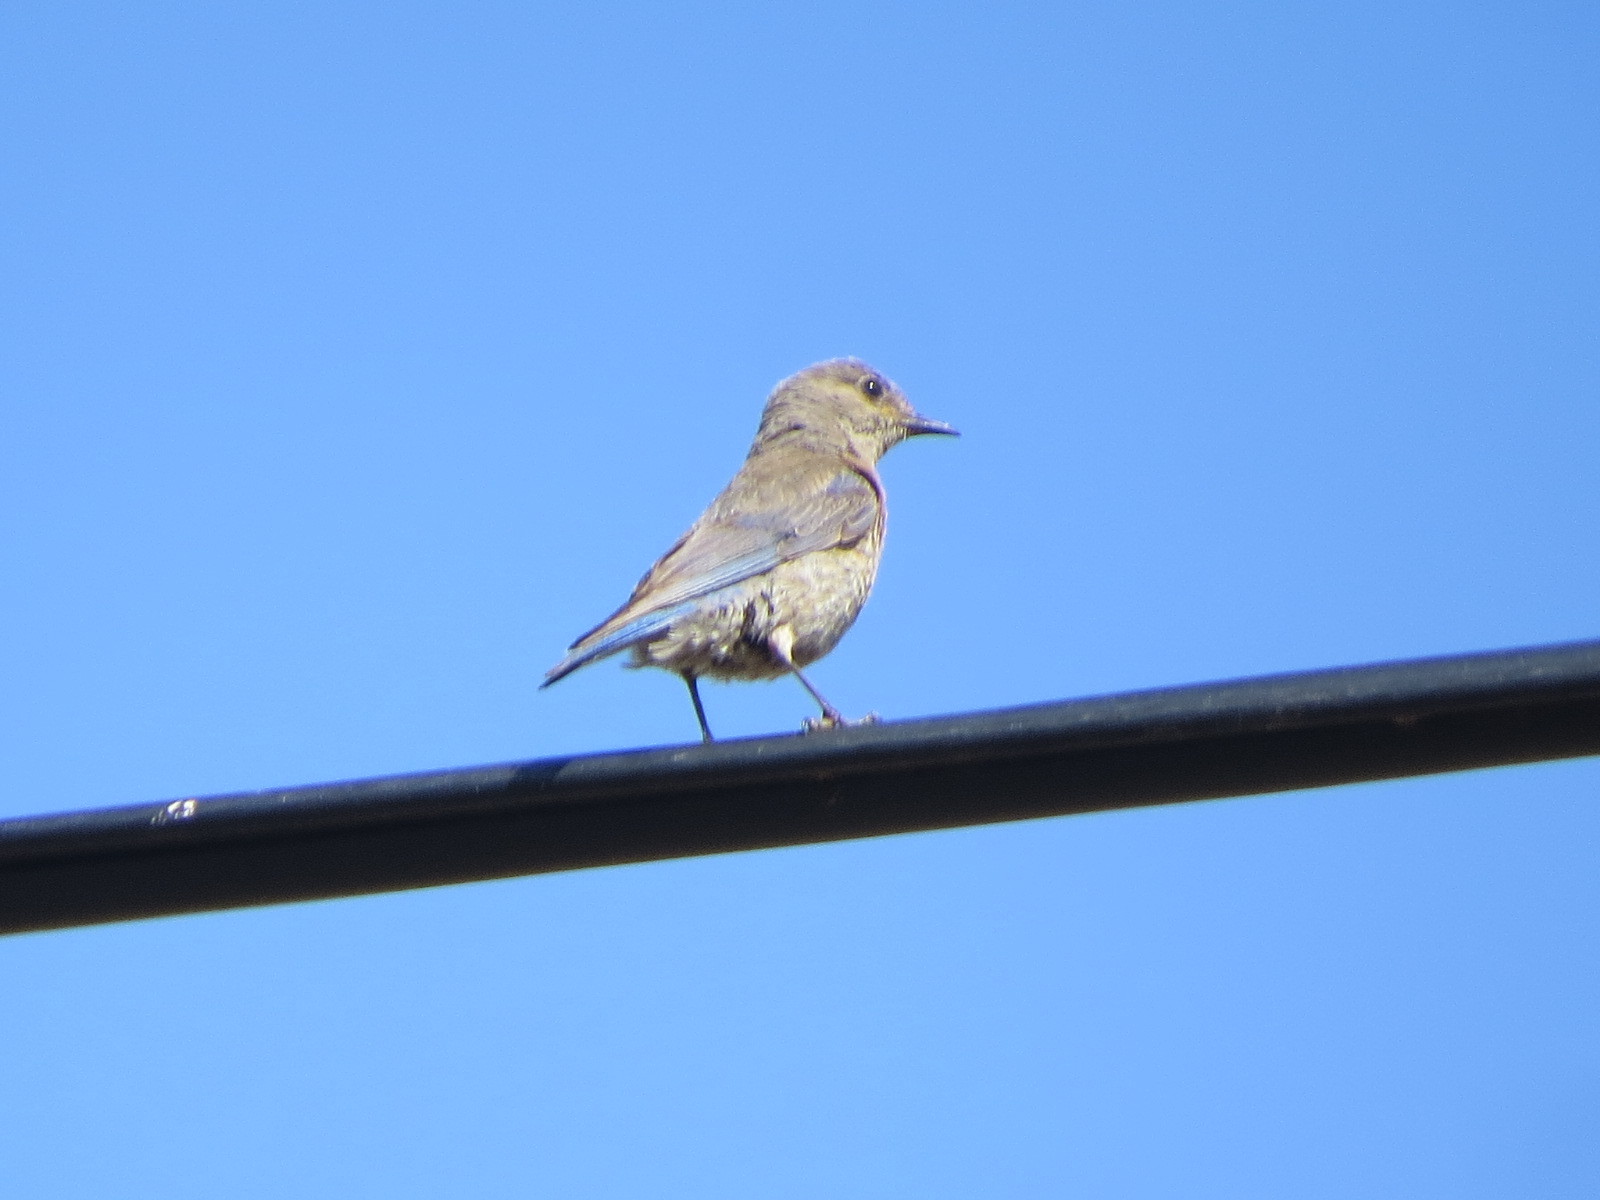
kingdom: Animalia
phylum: Chordata
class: Aves
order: Passeriformes
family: Turdidae
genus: Sialia
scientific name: Sialia mexicana
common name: Western bluebird
